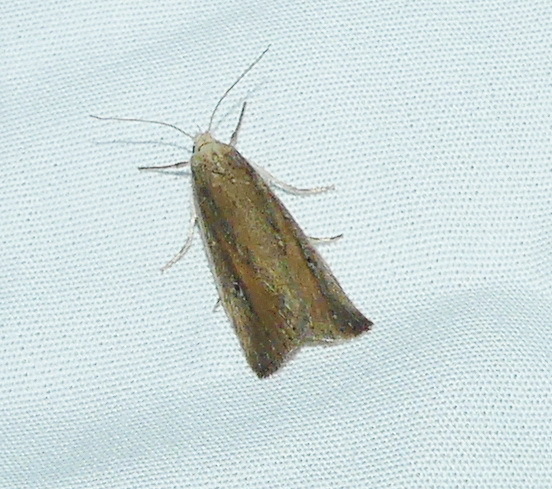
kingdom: Animalia
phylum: Arthropoda
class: Insecta
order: Lepidoptera
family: Noctuidae
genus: Condica
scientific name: Condica videns
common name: White-dotted groundling
